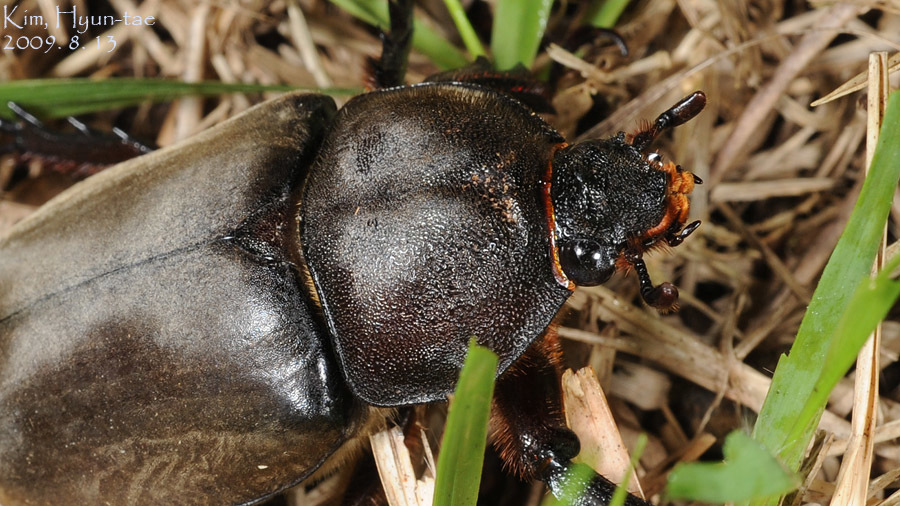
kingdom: Animalia
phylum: Arthropoda
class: Insecta
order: Coleoptera
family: Scarabaeidae
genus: Trypoxylus
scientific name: Trypoxylus dichotomus
